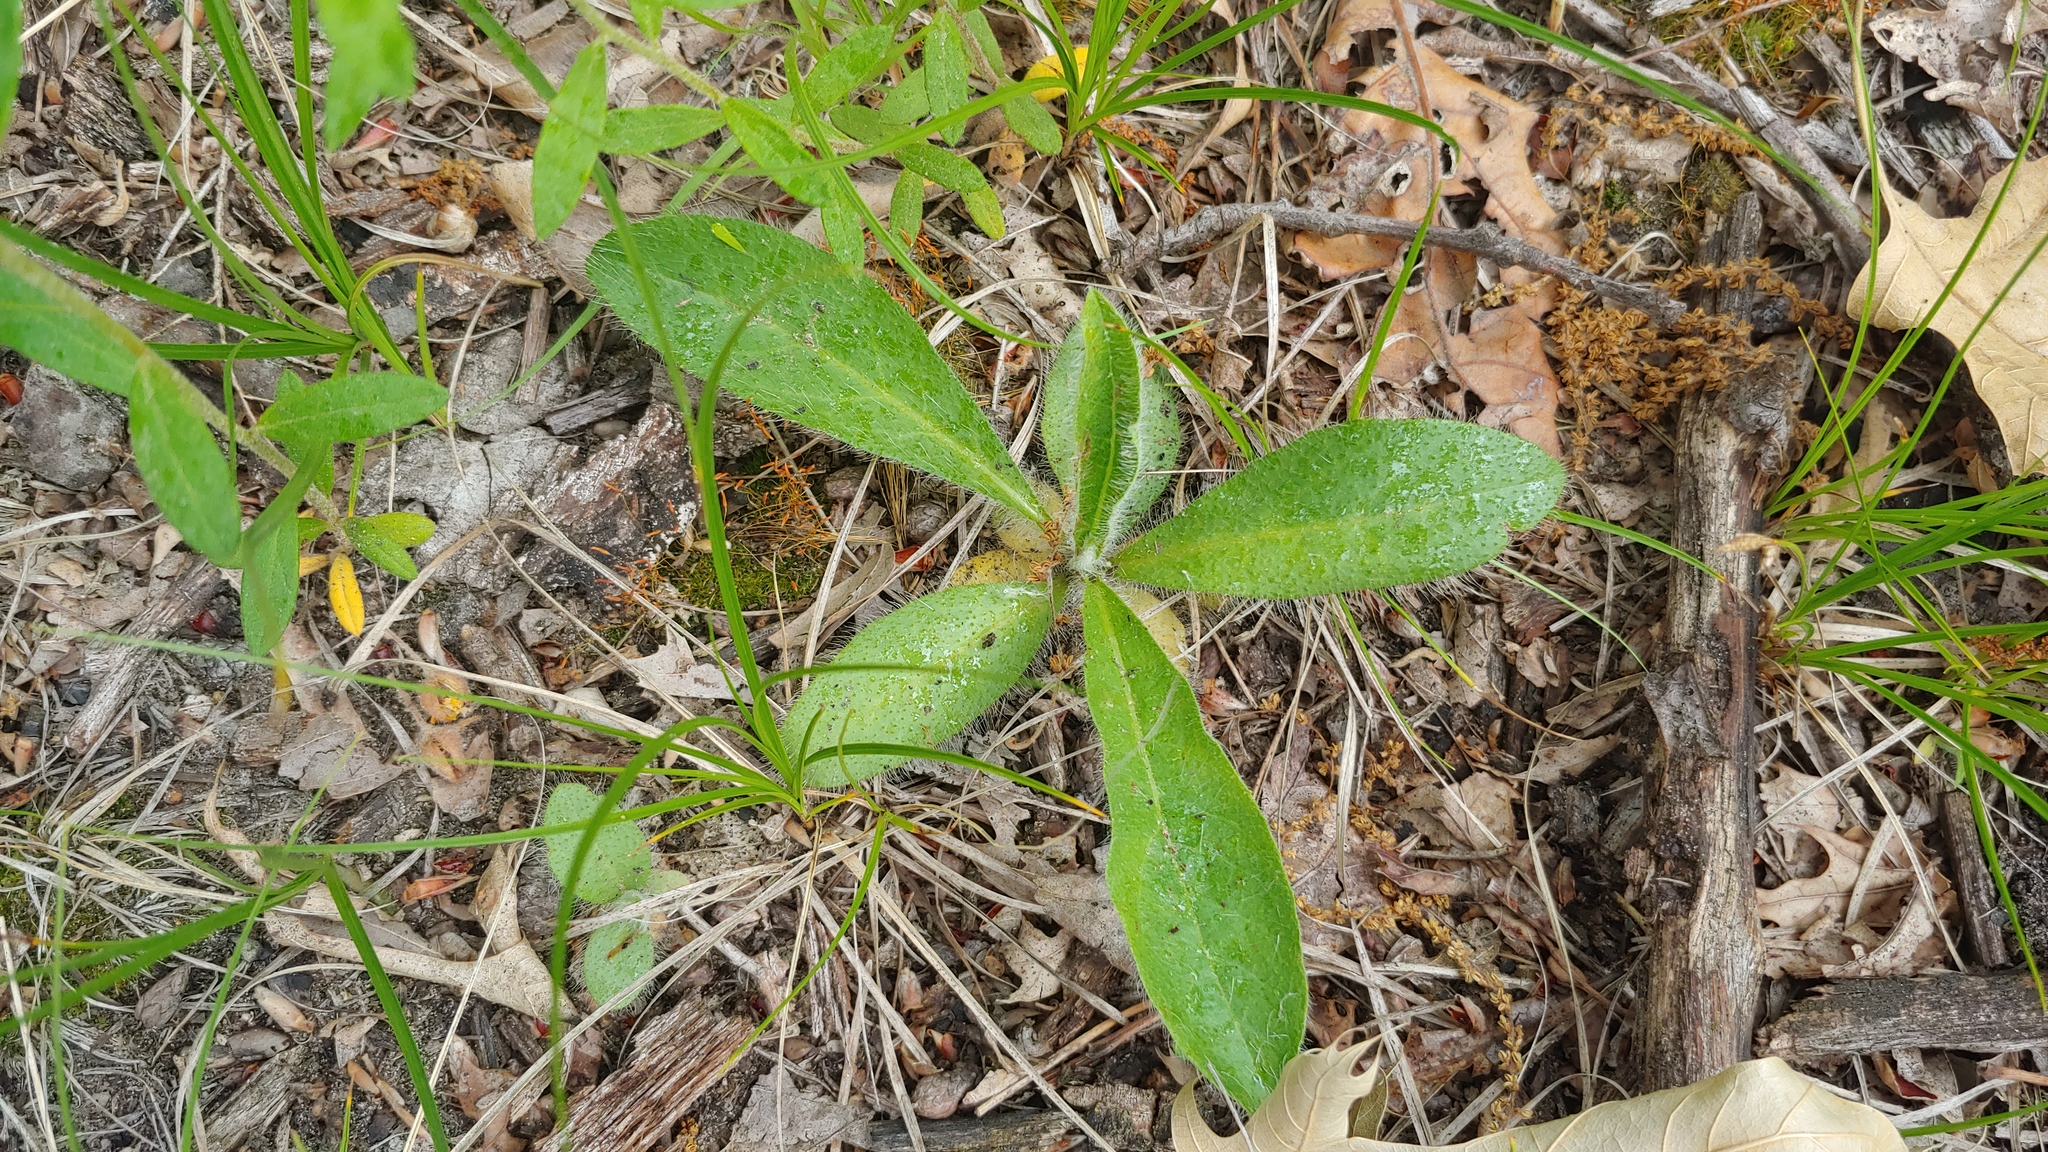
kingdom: Plantae
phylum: Tracheophyta
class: Magnoliopsida
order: Asterales
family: Asteraceae
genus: Hieracium
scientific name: Hieracium gronovii
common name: Beaked hawkweed
